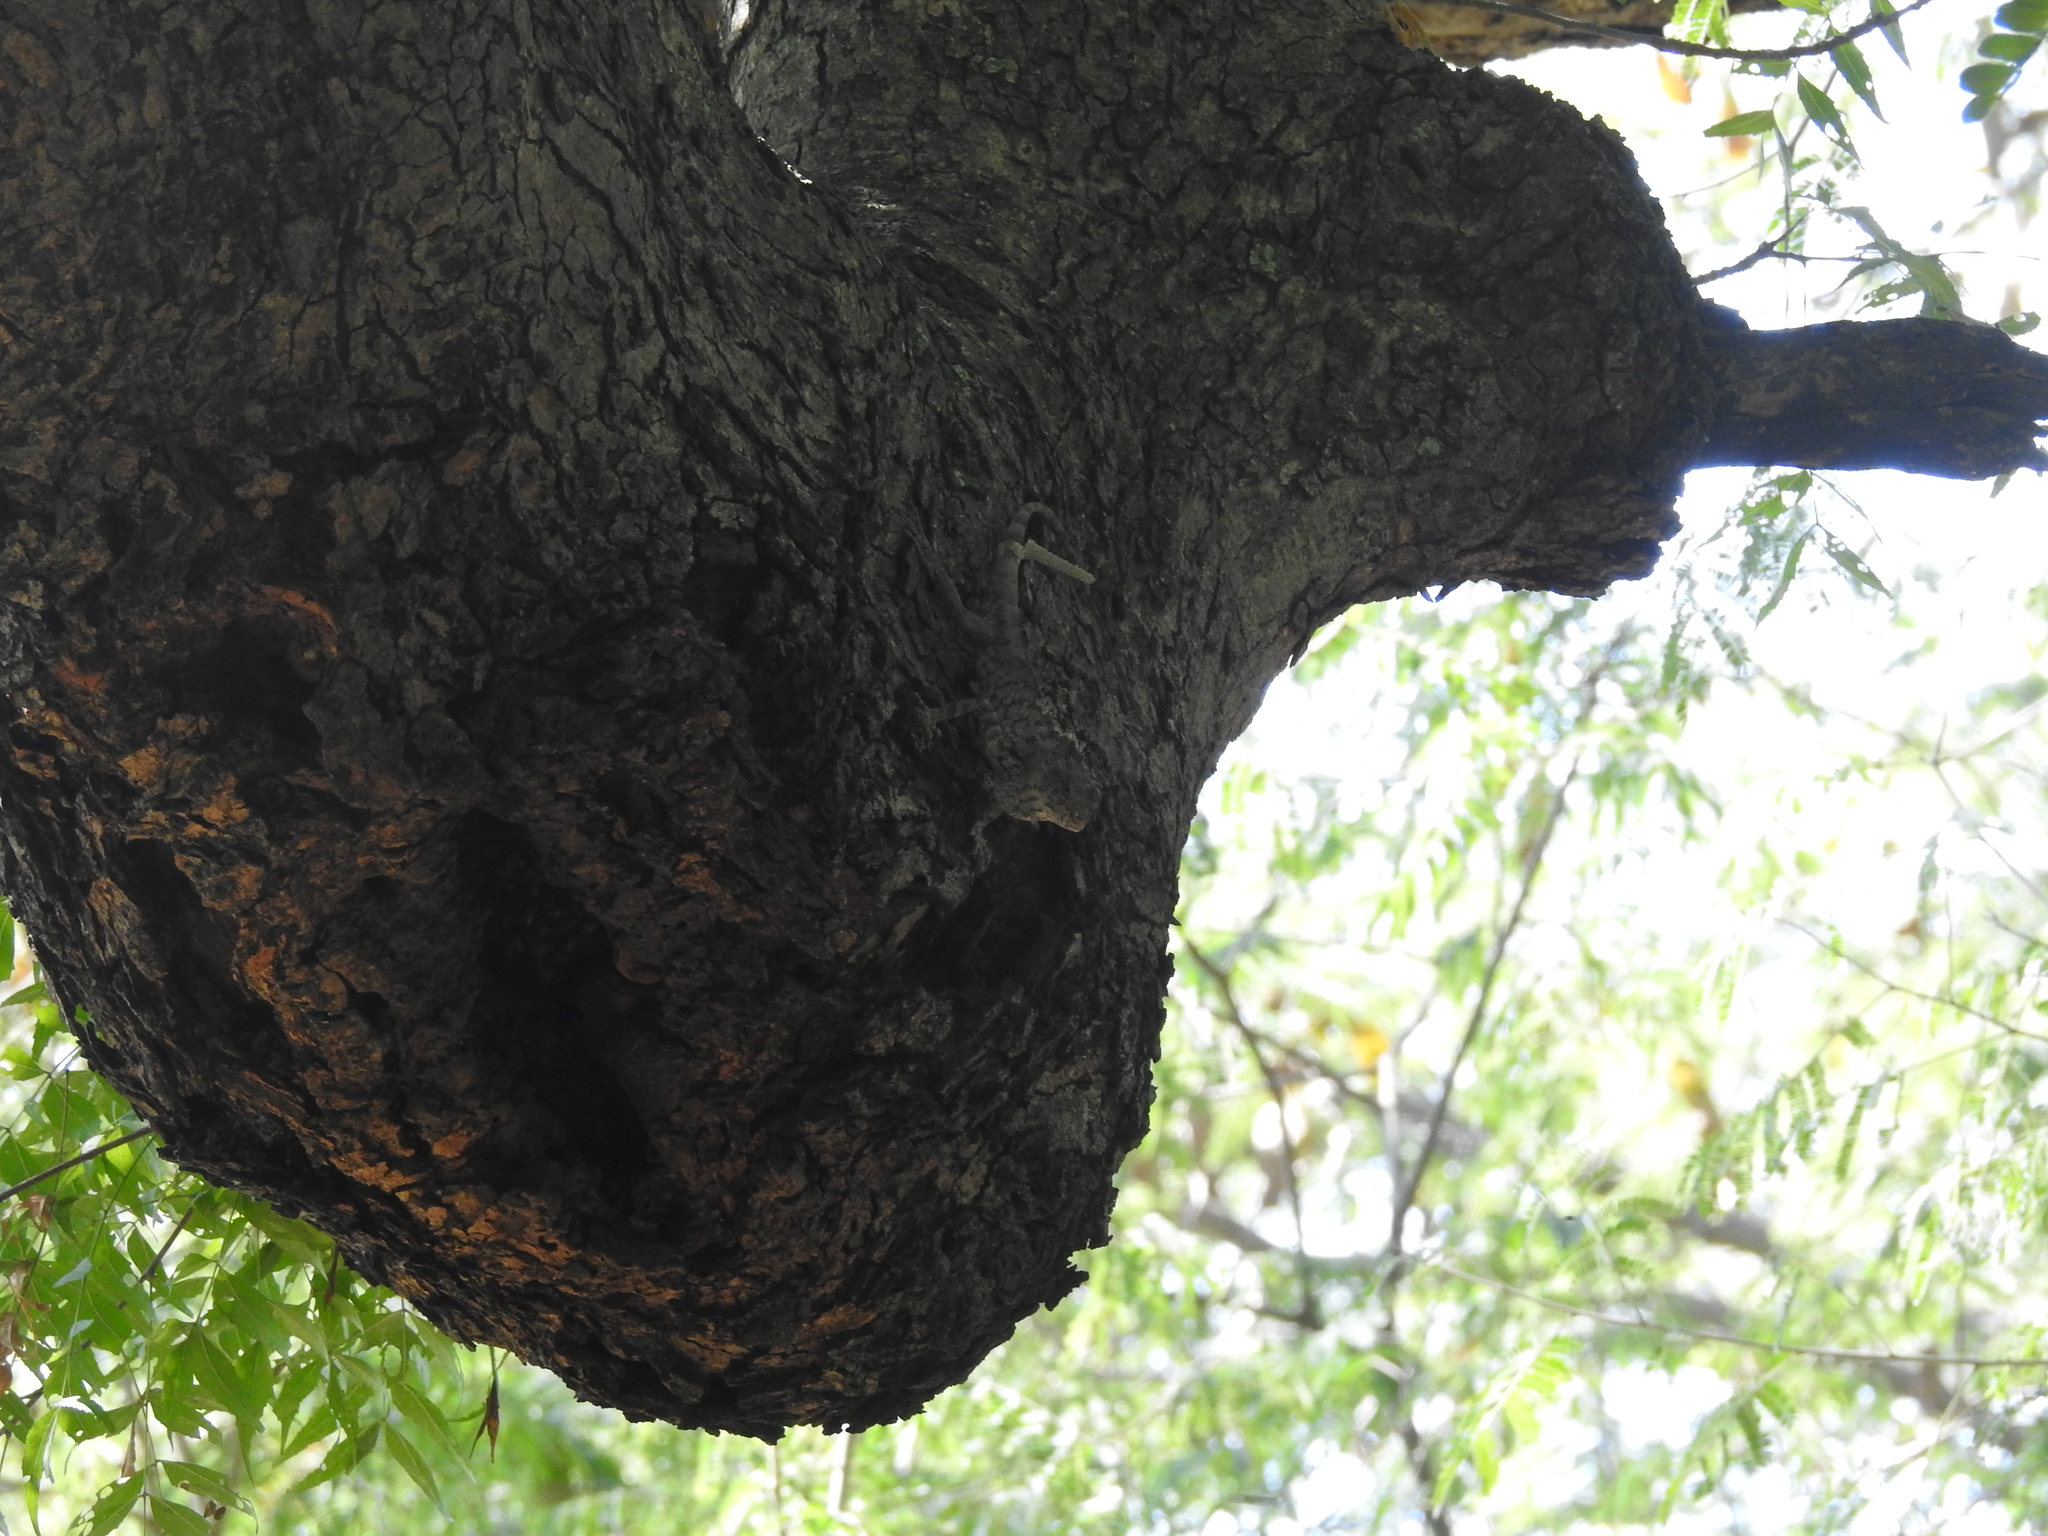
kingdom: Animalia
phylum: Chordata
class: Squamata
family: Agamidae
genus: Calotes
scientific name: Calotes versicolor
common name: Oriental garden lizard
